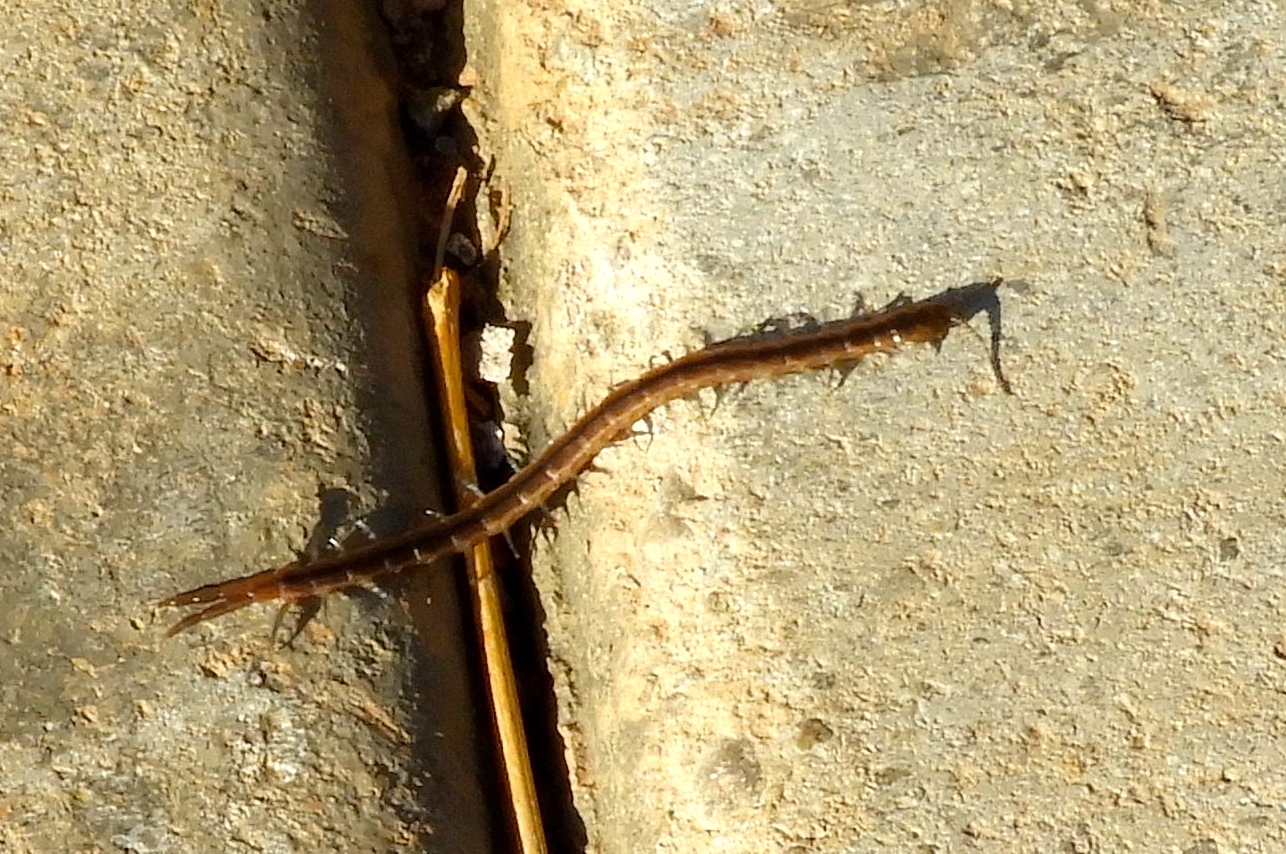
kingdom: Animalia
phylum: Arthropoda
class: Chilopoda
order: Scolopendromorpha
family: Scolopendridae
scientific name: Scolopendridae
